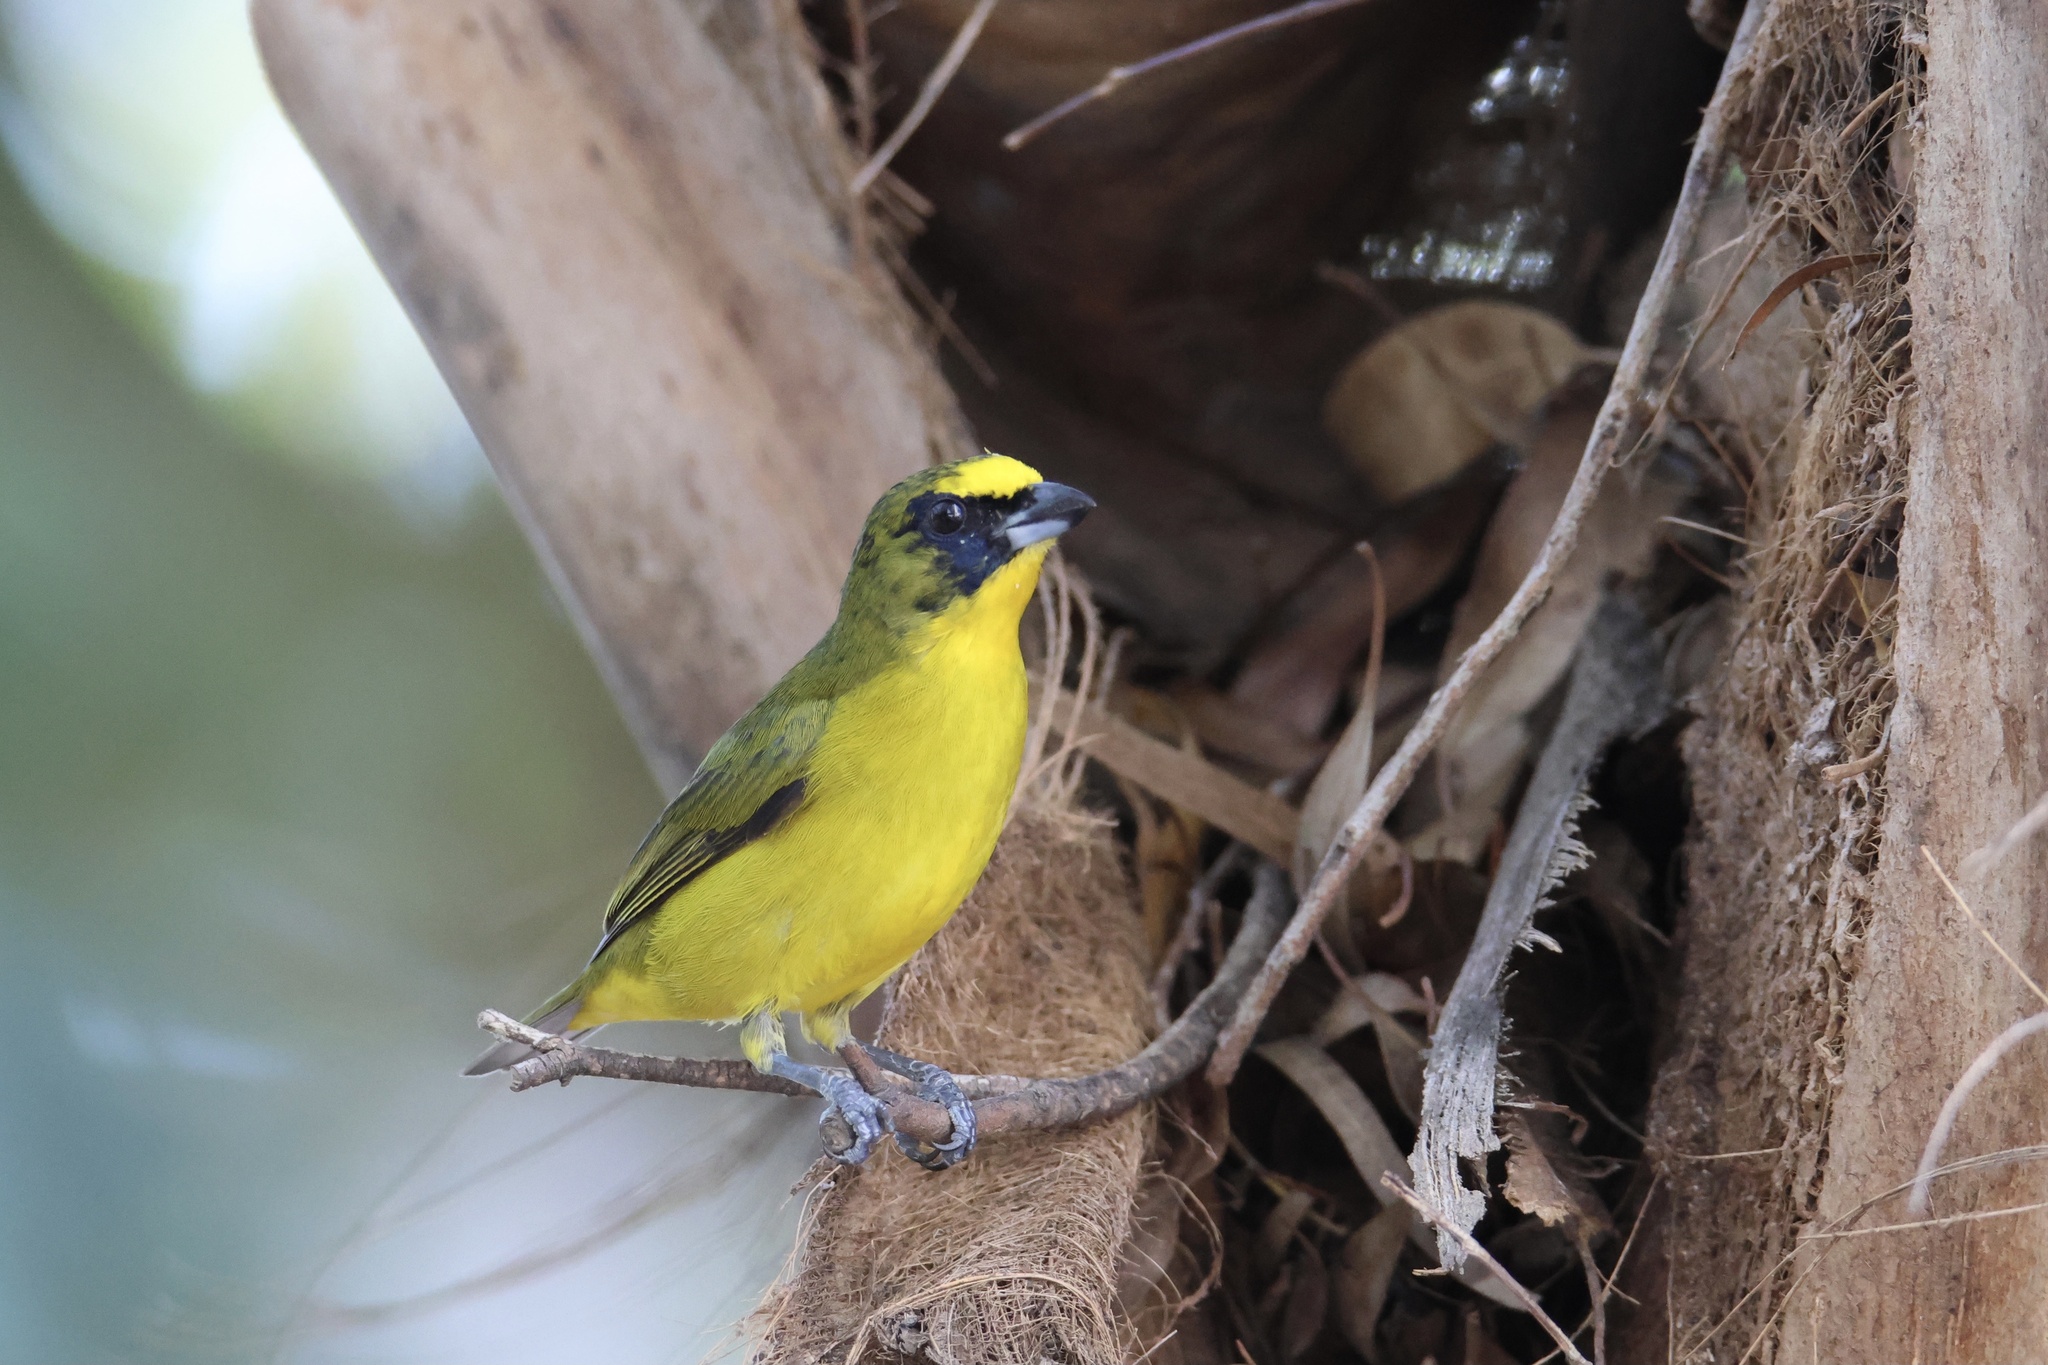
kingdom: Animalia
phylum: Chordata
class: Aves
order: Passeriformes
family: Fringillidae
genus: Euphonia
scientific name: Euphonia laniirostris
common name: Thick-billed euphonia
